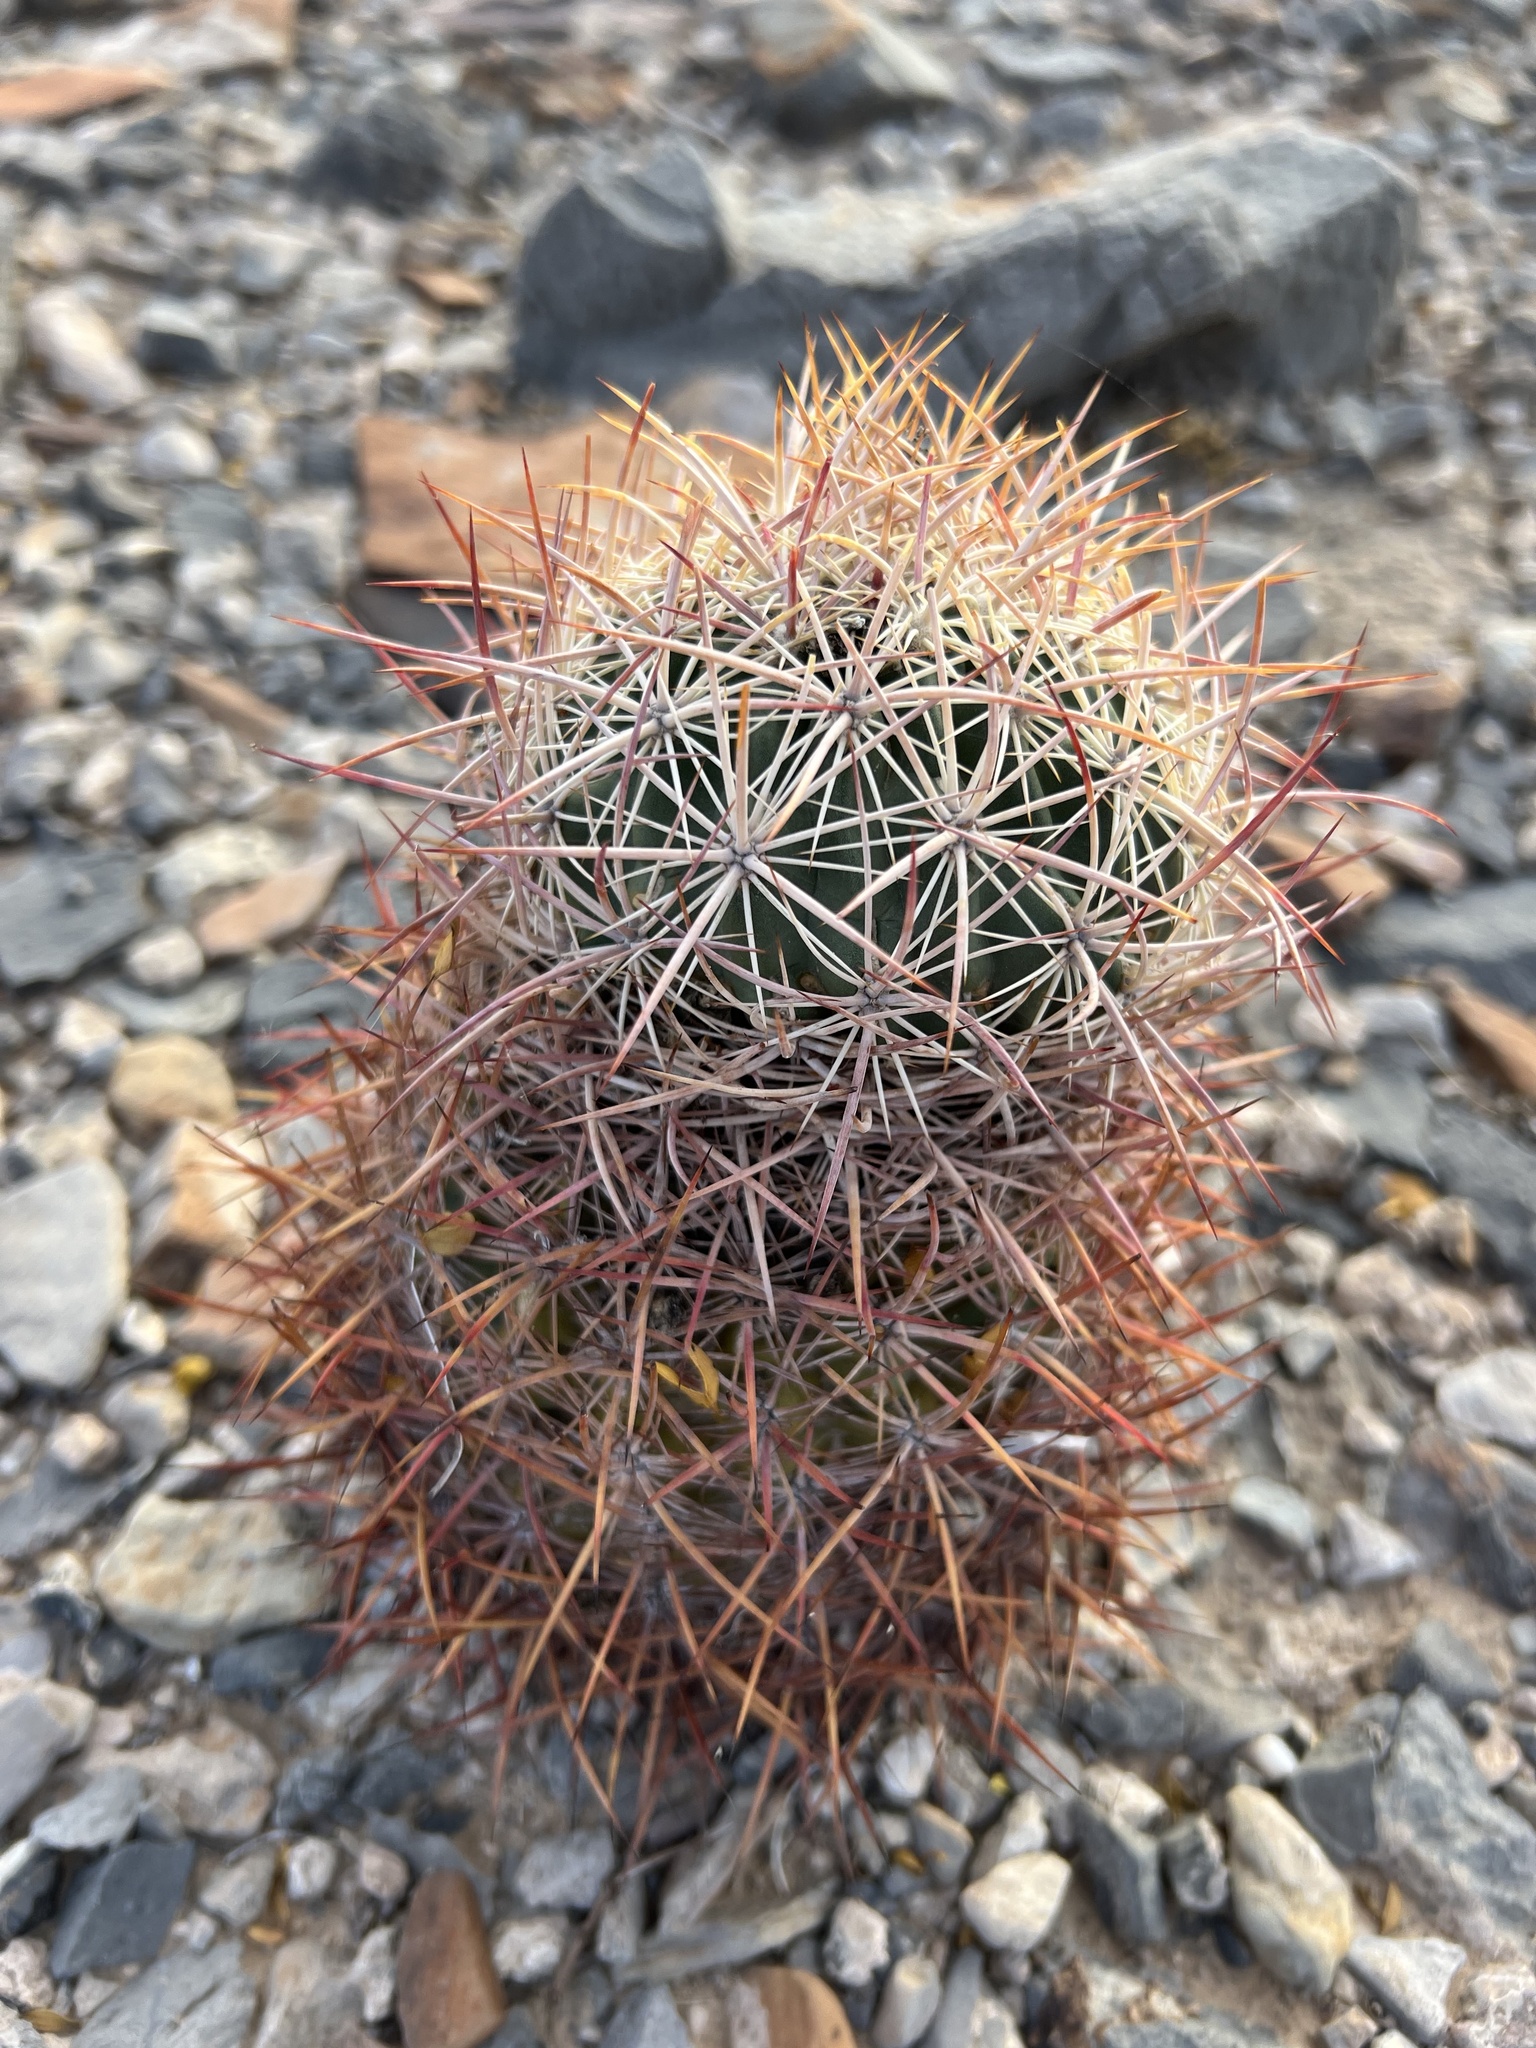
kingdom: Plantae
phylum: Tracheophyta
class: Magnoliopsida
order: Caryophyllales
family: Cactaceae
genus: Sclerocactus
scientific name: Sclerocactus johnsonii
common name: Eight-spine fishhook cactus
